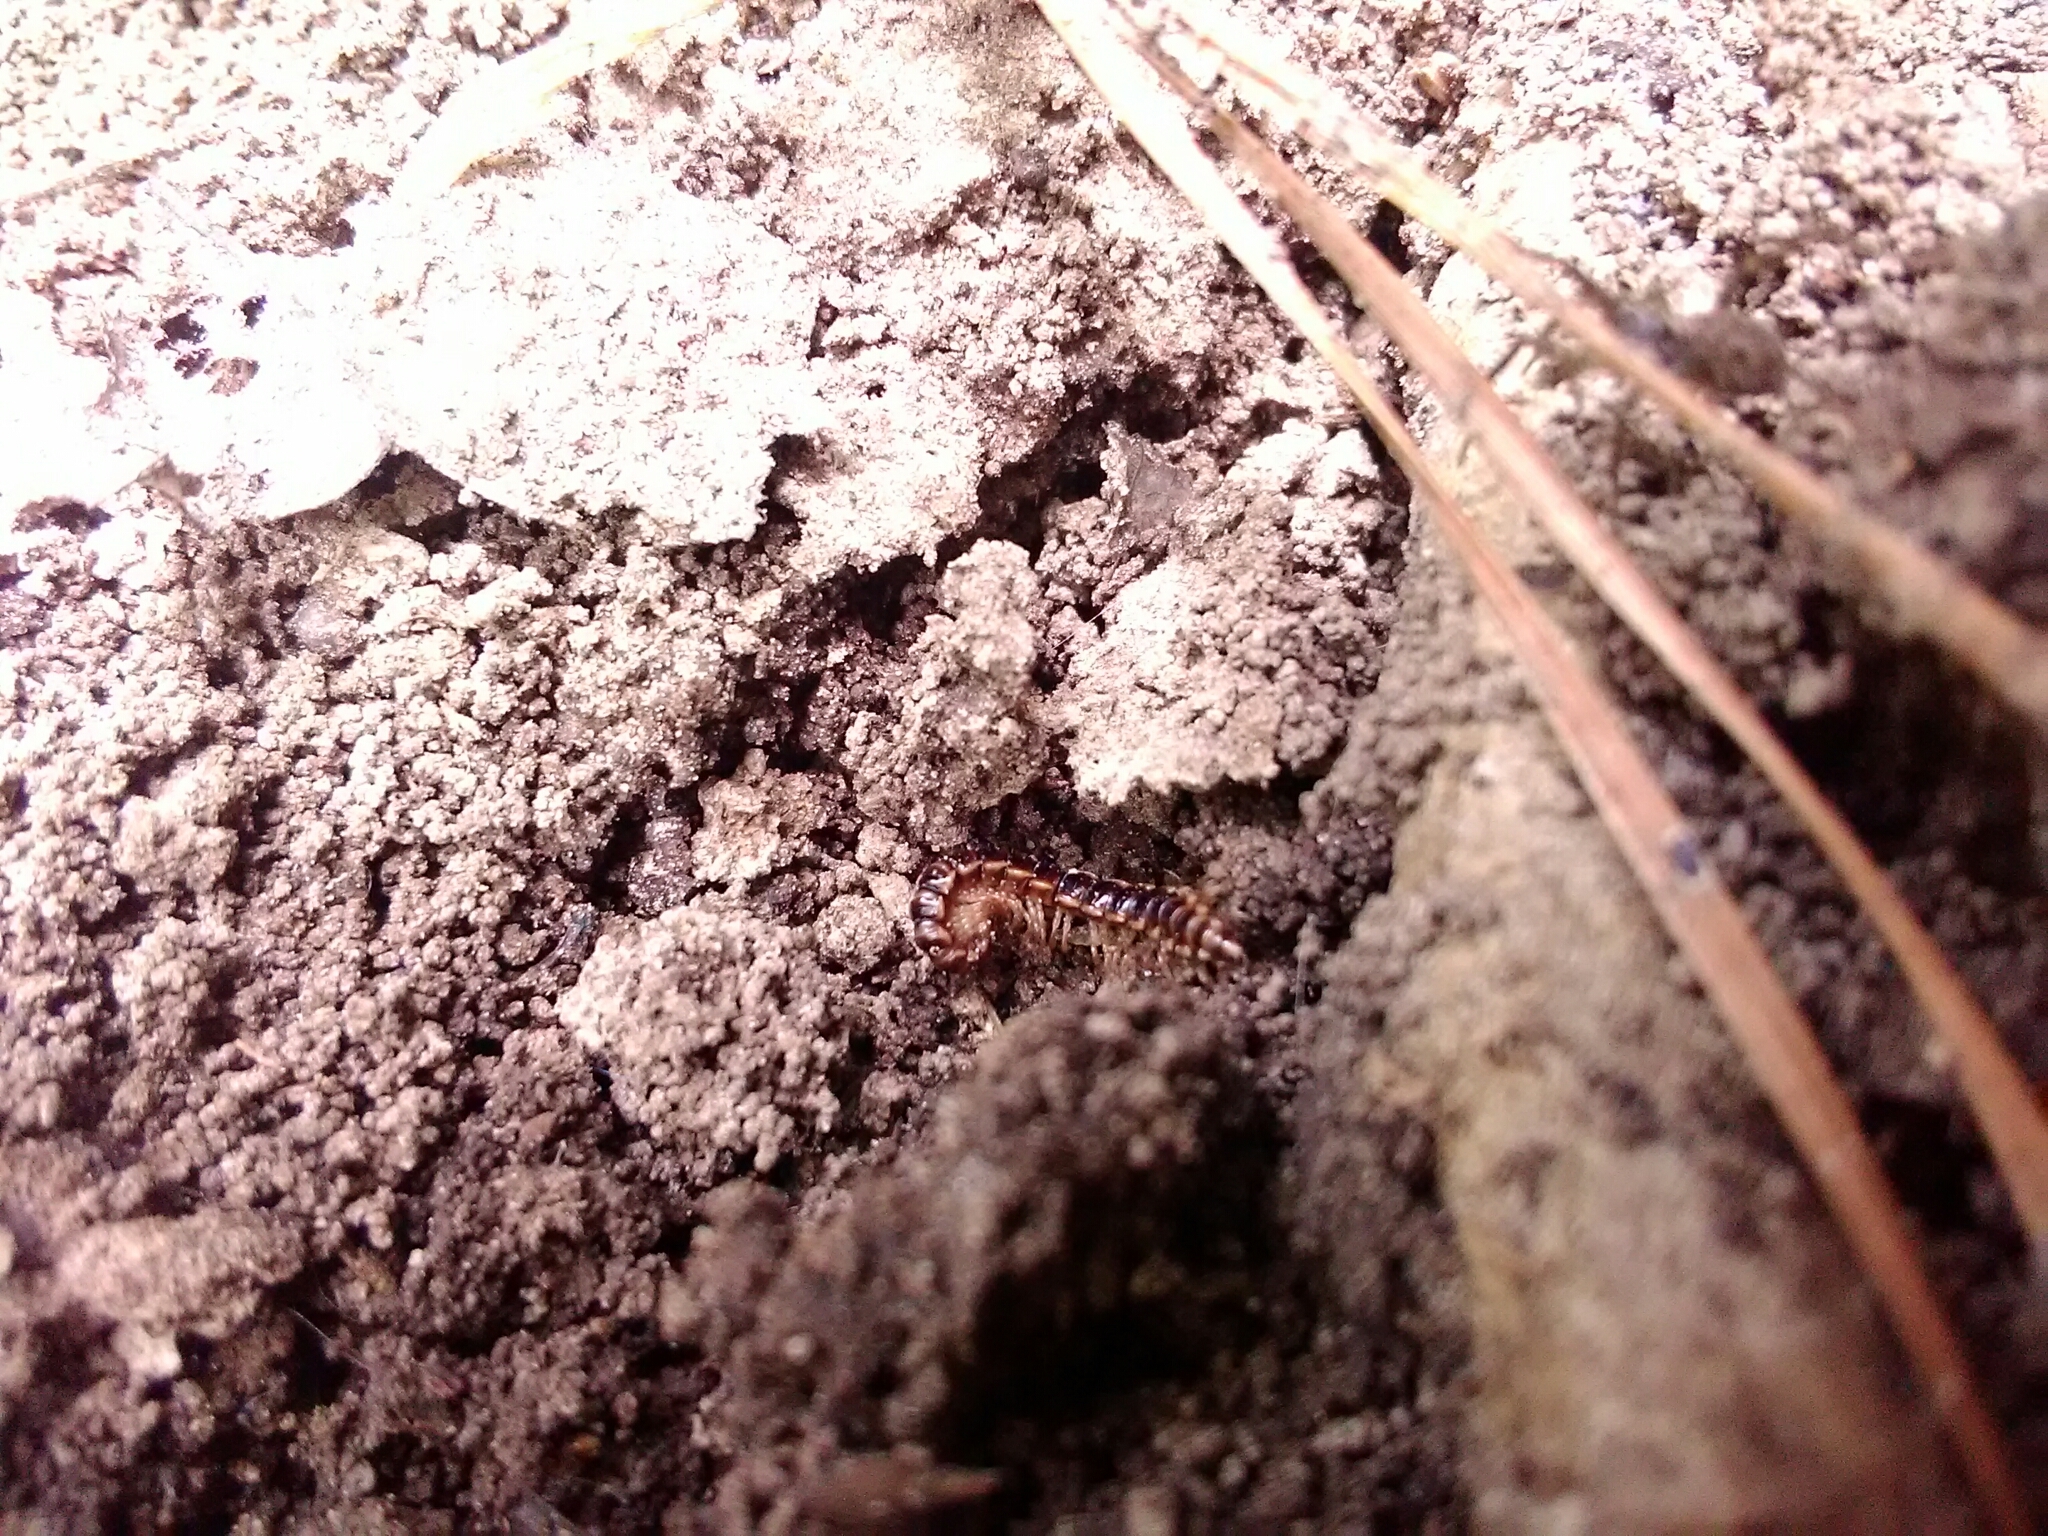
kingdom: Animalia
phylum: Arthropoda
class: Diplopoda
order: Polydesmida
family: Paradoxosomatidae
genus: Oxidus
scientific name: Oxidus gracilis
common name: Greenhouse millipede
